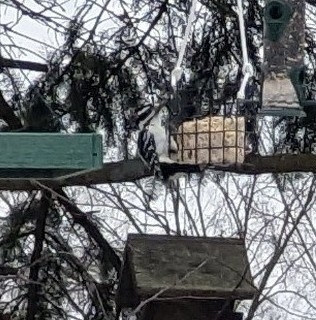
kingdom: Animalia
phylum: Chordata
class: Aves
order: Piciformes
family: Picidae
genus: Leuconotopicus
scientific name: Leuconotopicus villosus
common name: Hairy woodpecker
